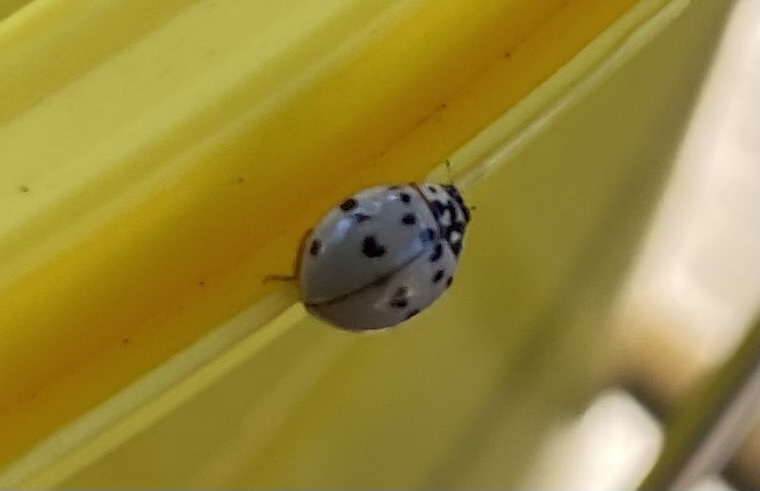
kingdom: Animalia
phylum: Arthropoda
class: Insecta
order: Coleoptera
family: Coccinellidae
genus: Olla
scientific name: Olla v-nigrum
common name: Ashy gray lady beetle
